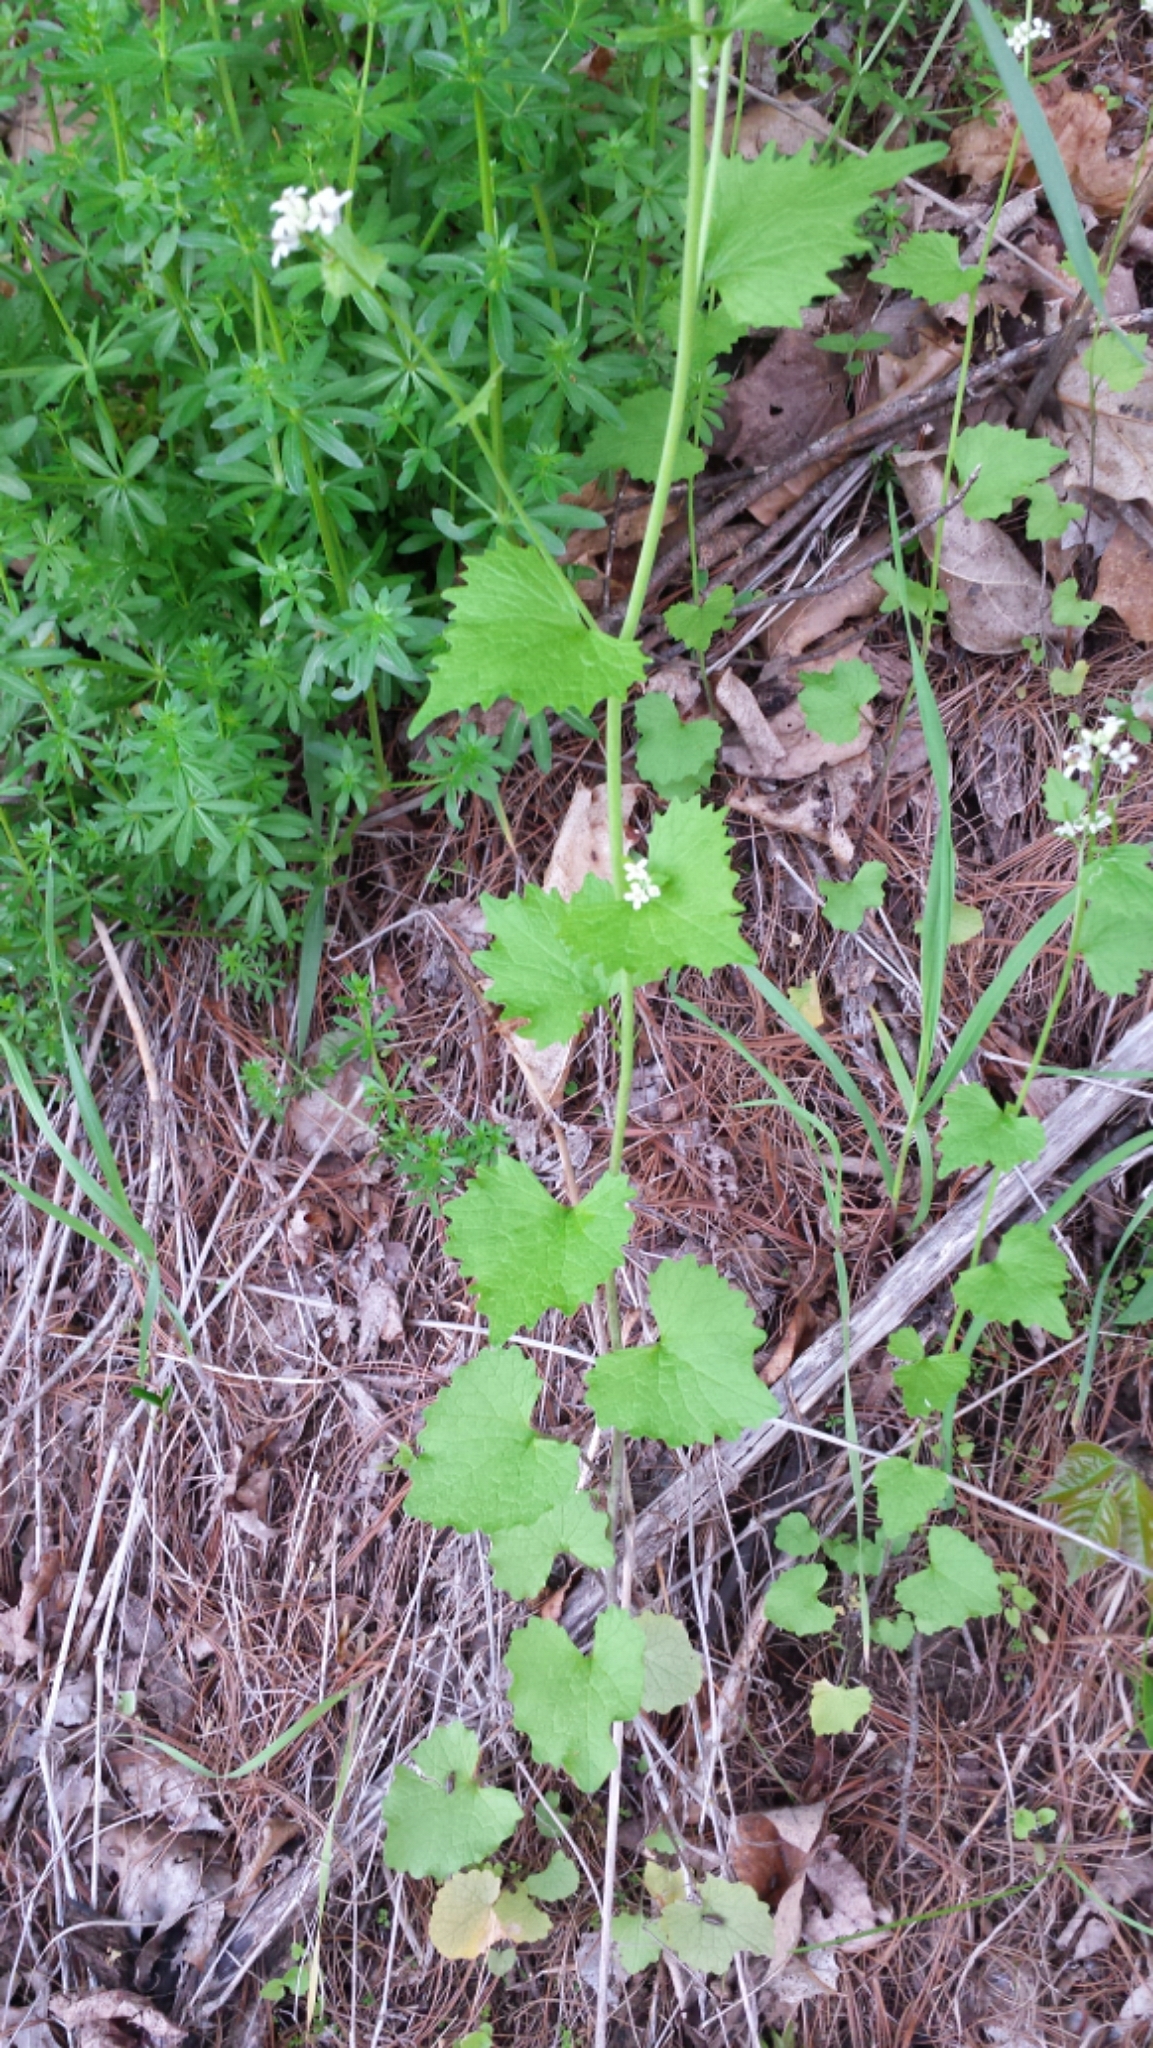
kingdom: Plantae
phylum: Tracheophyta
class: Magnoliopsida
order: Brassicales
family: Brassicaceae
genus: Alliaria
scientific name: Alliaria petiolata
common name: Garlic mustard
